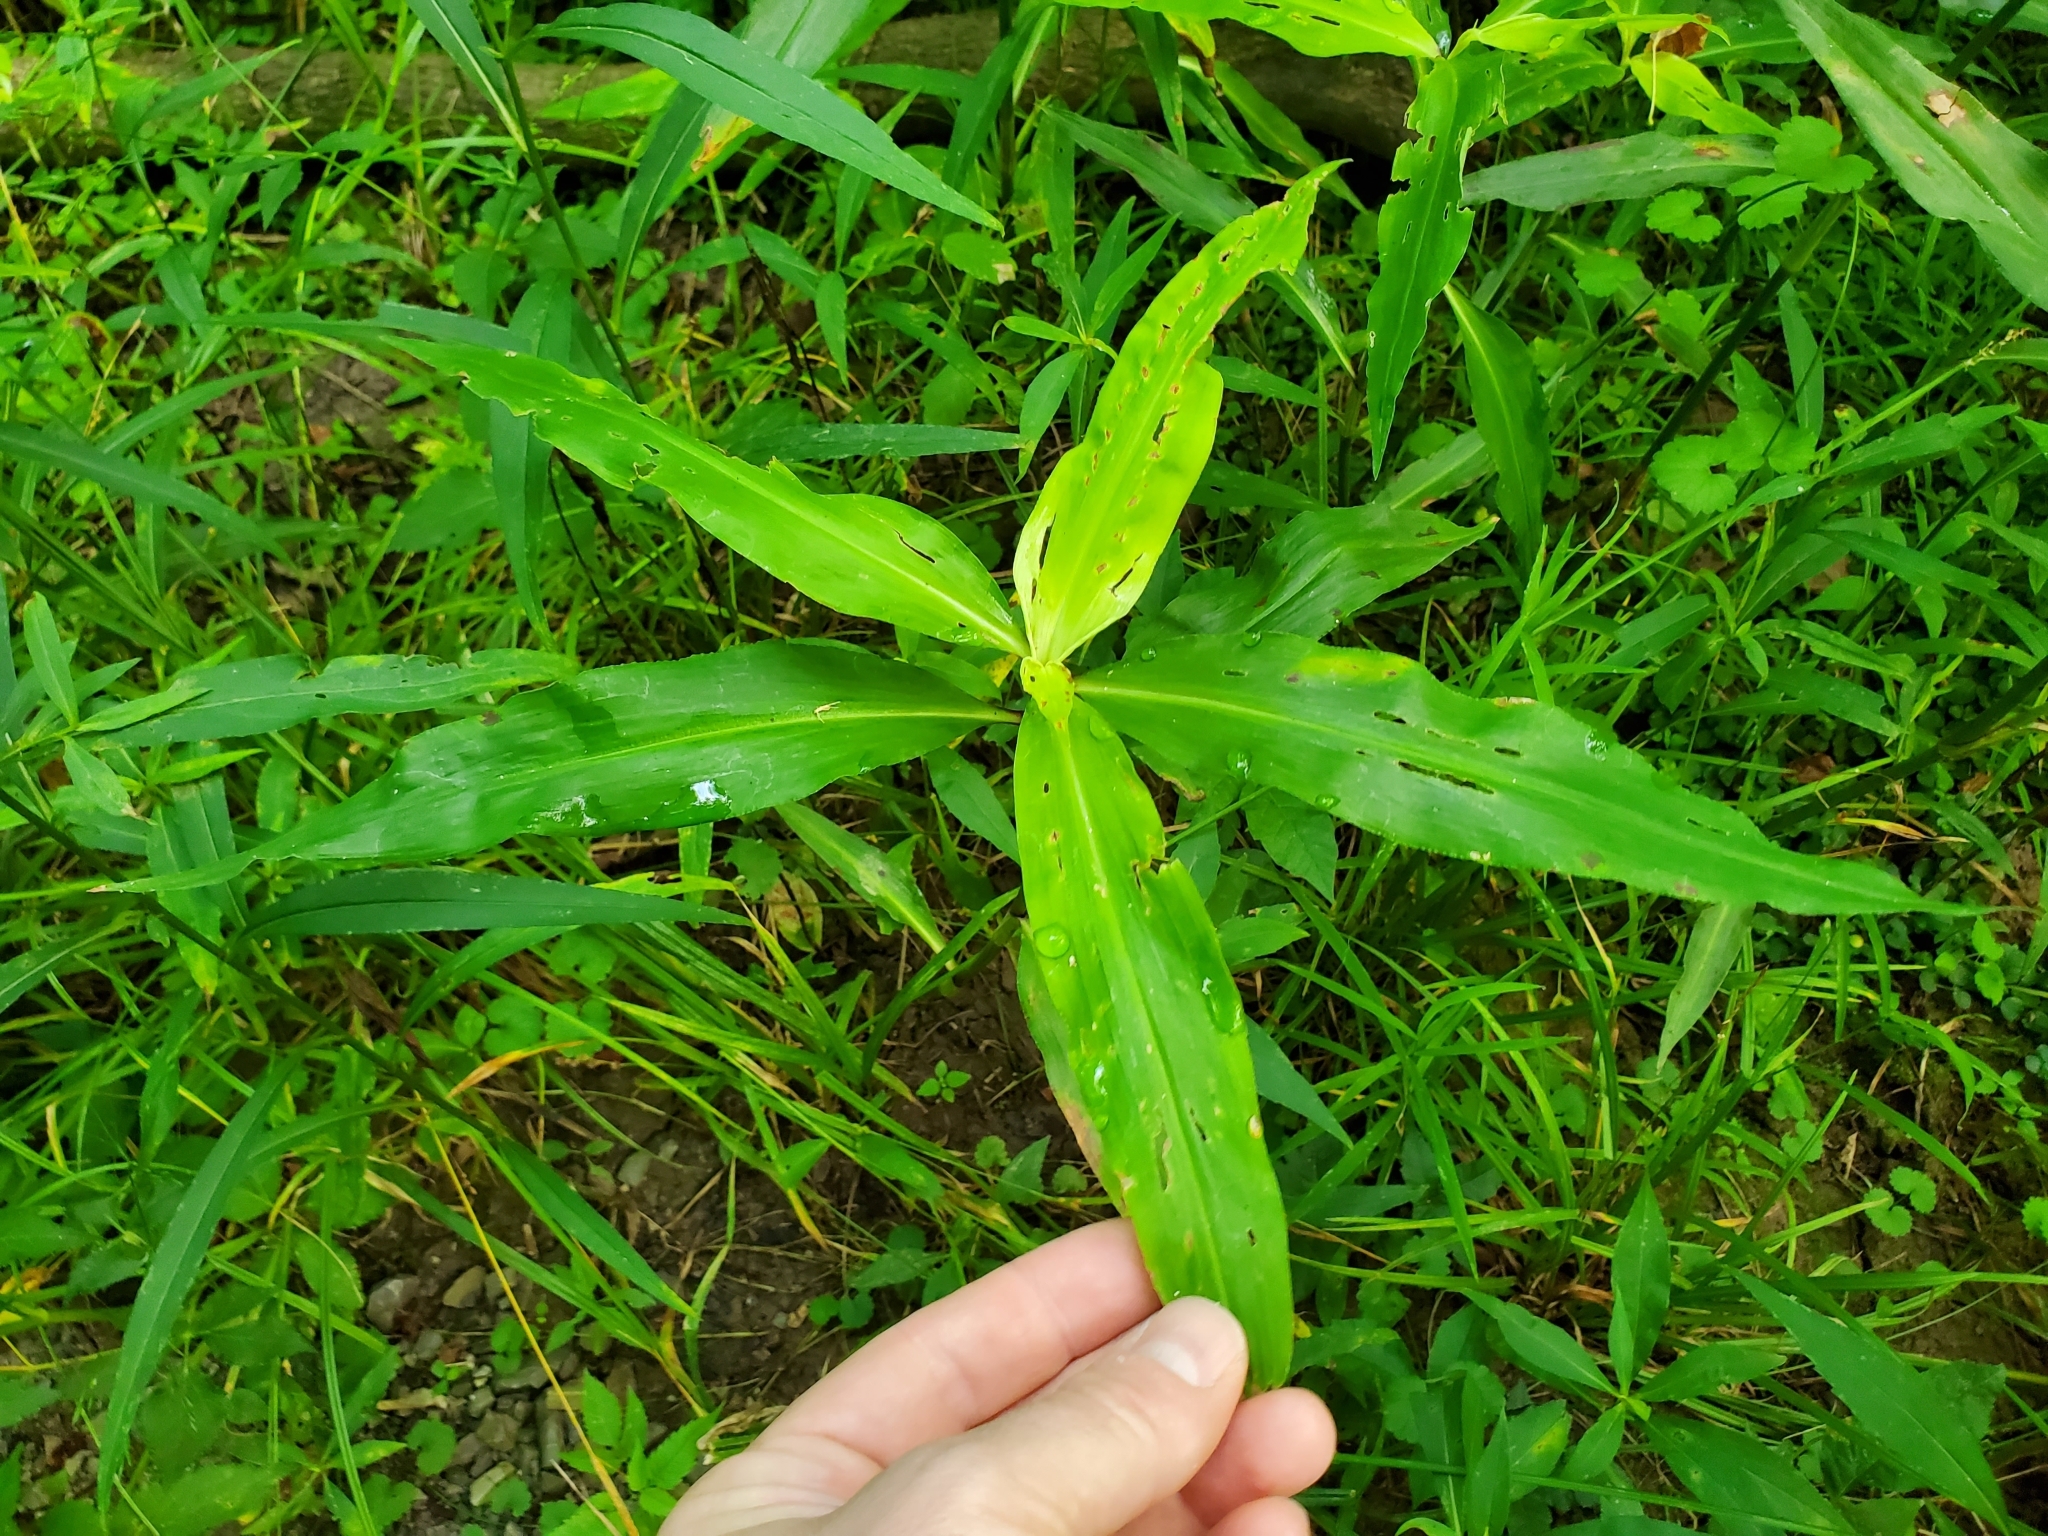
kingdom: Plantae
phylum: Tracheophyta
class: Liliopsida
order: Commelinales
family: Commelinaceae
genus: Commelina
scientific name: Commelina virginica
